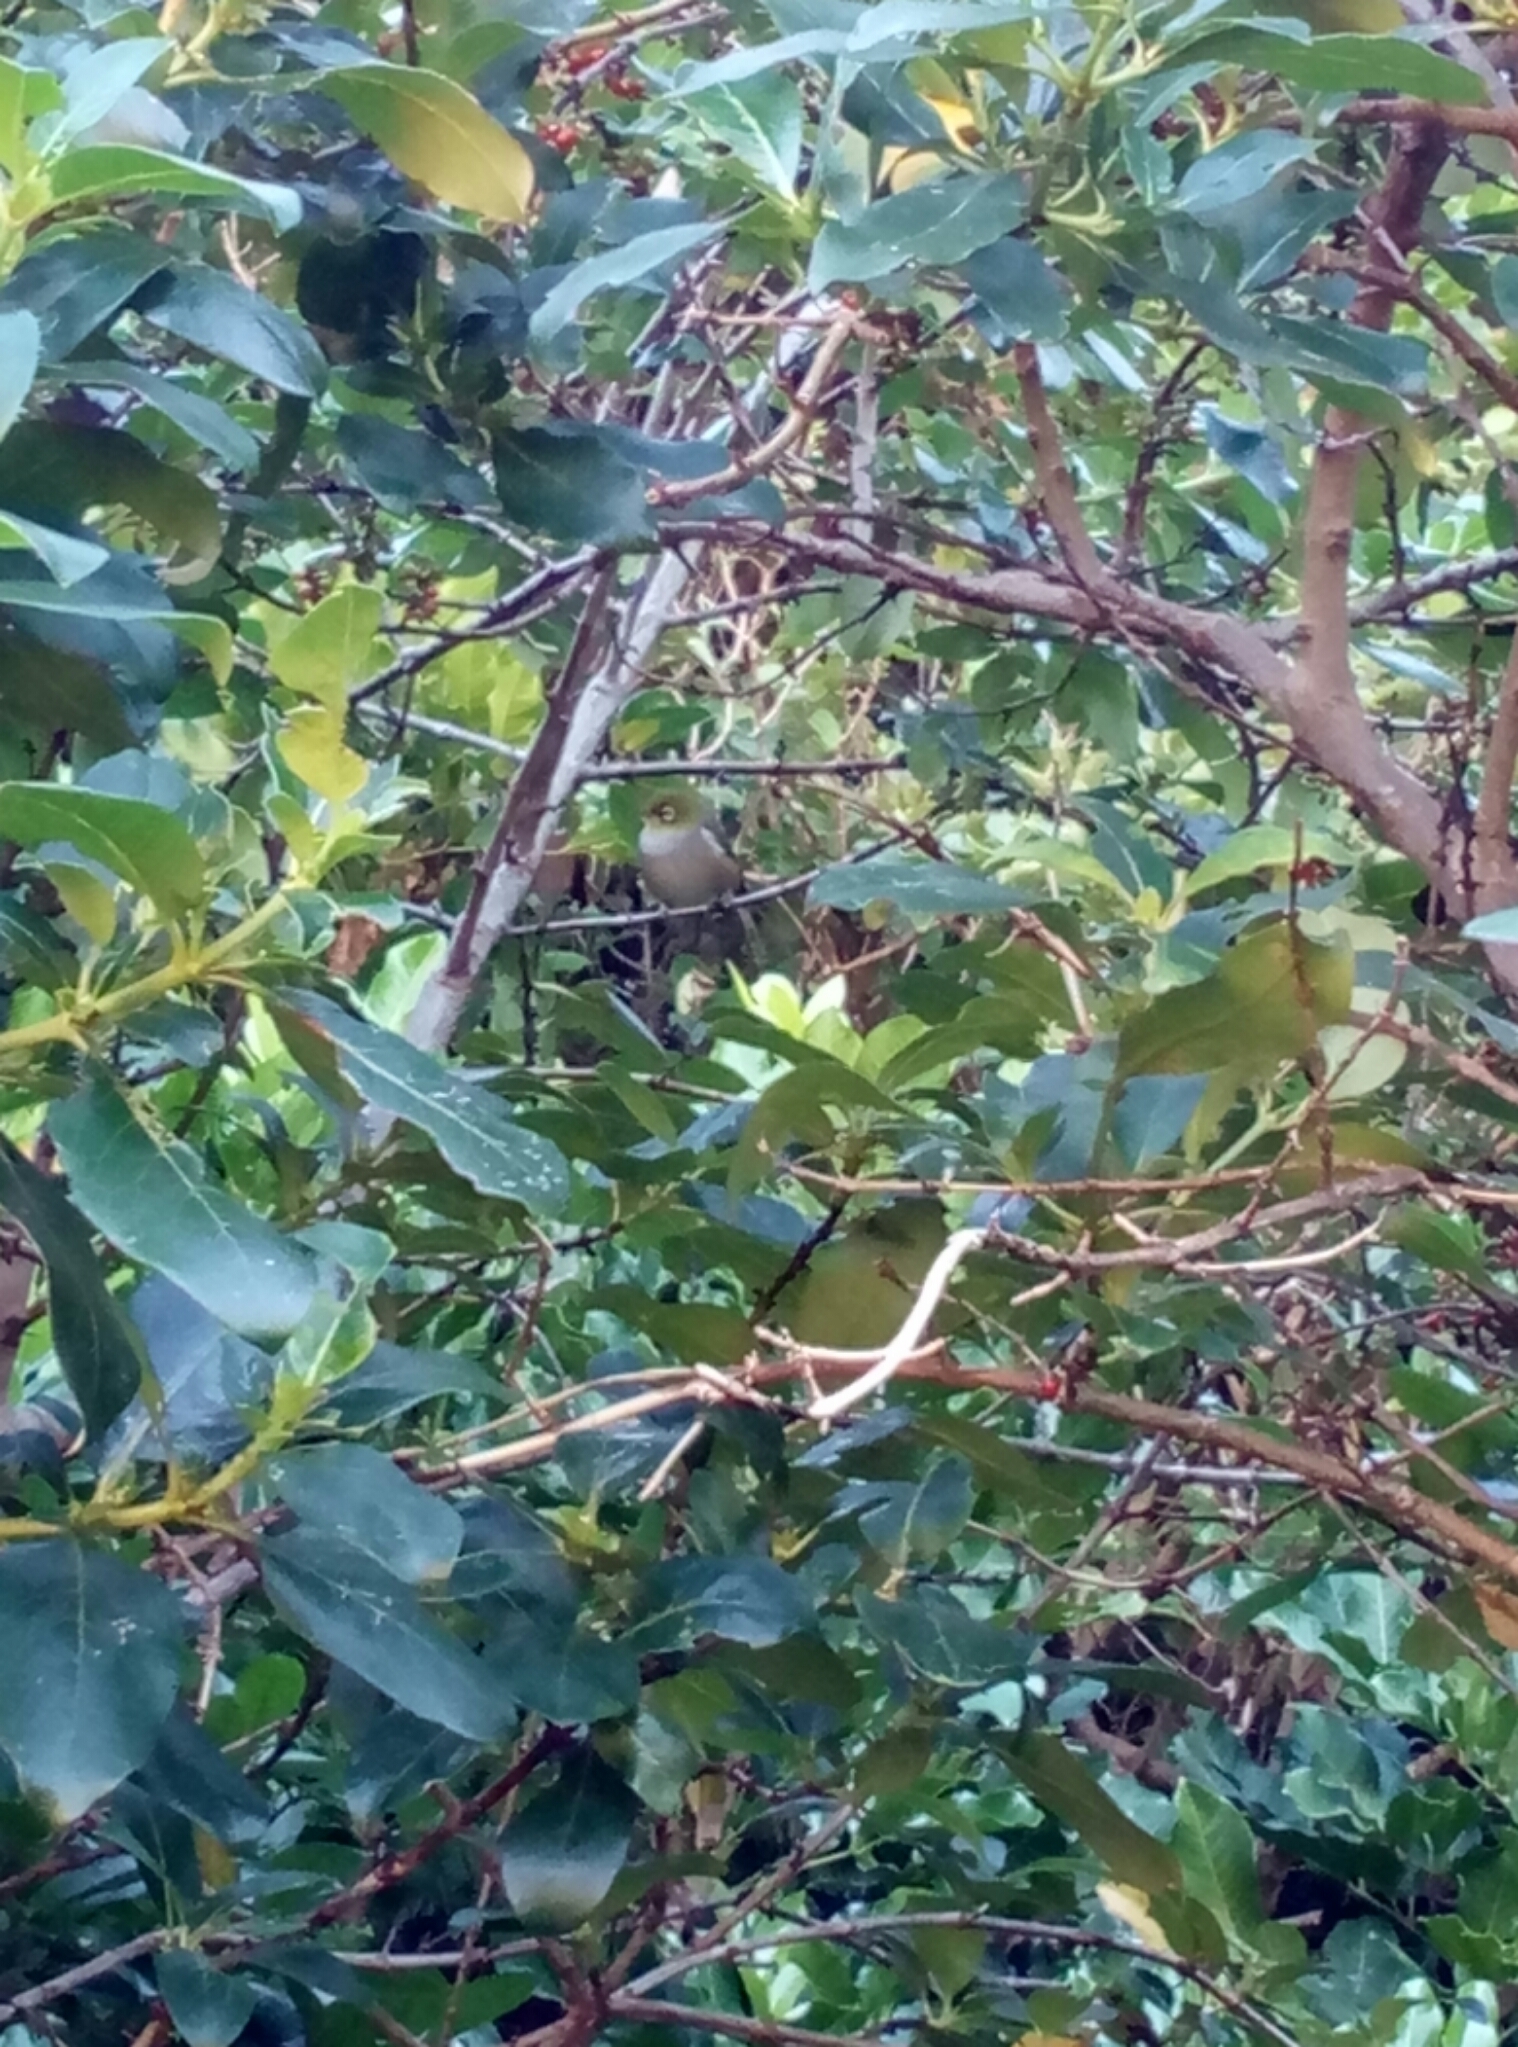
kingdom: Animalia
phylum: Chordata
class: Aves
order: Passeriformes
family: Zosteropidae
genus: Zosterops
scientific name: Zosterops lateralis
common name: Silvereye
